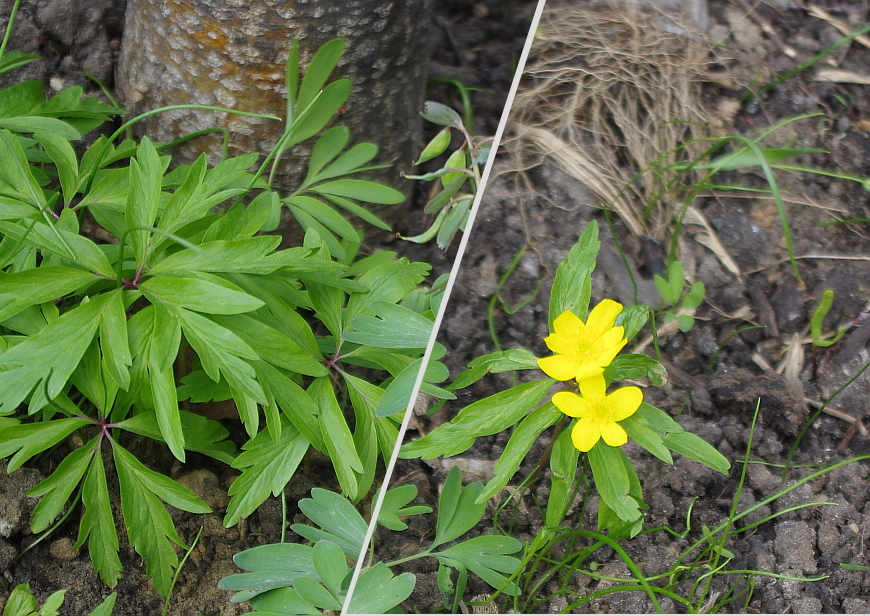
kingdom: Plantae
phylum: Tracheophyta
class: Magnoliopsida
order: Ranunculales
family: Ranunculaceae
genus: Anemone
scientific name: Anemone ranunculoides
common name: Yellow anemone
